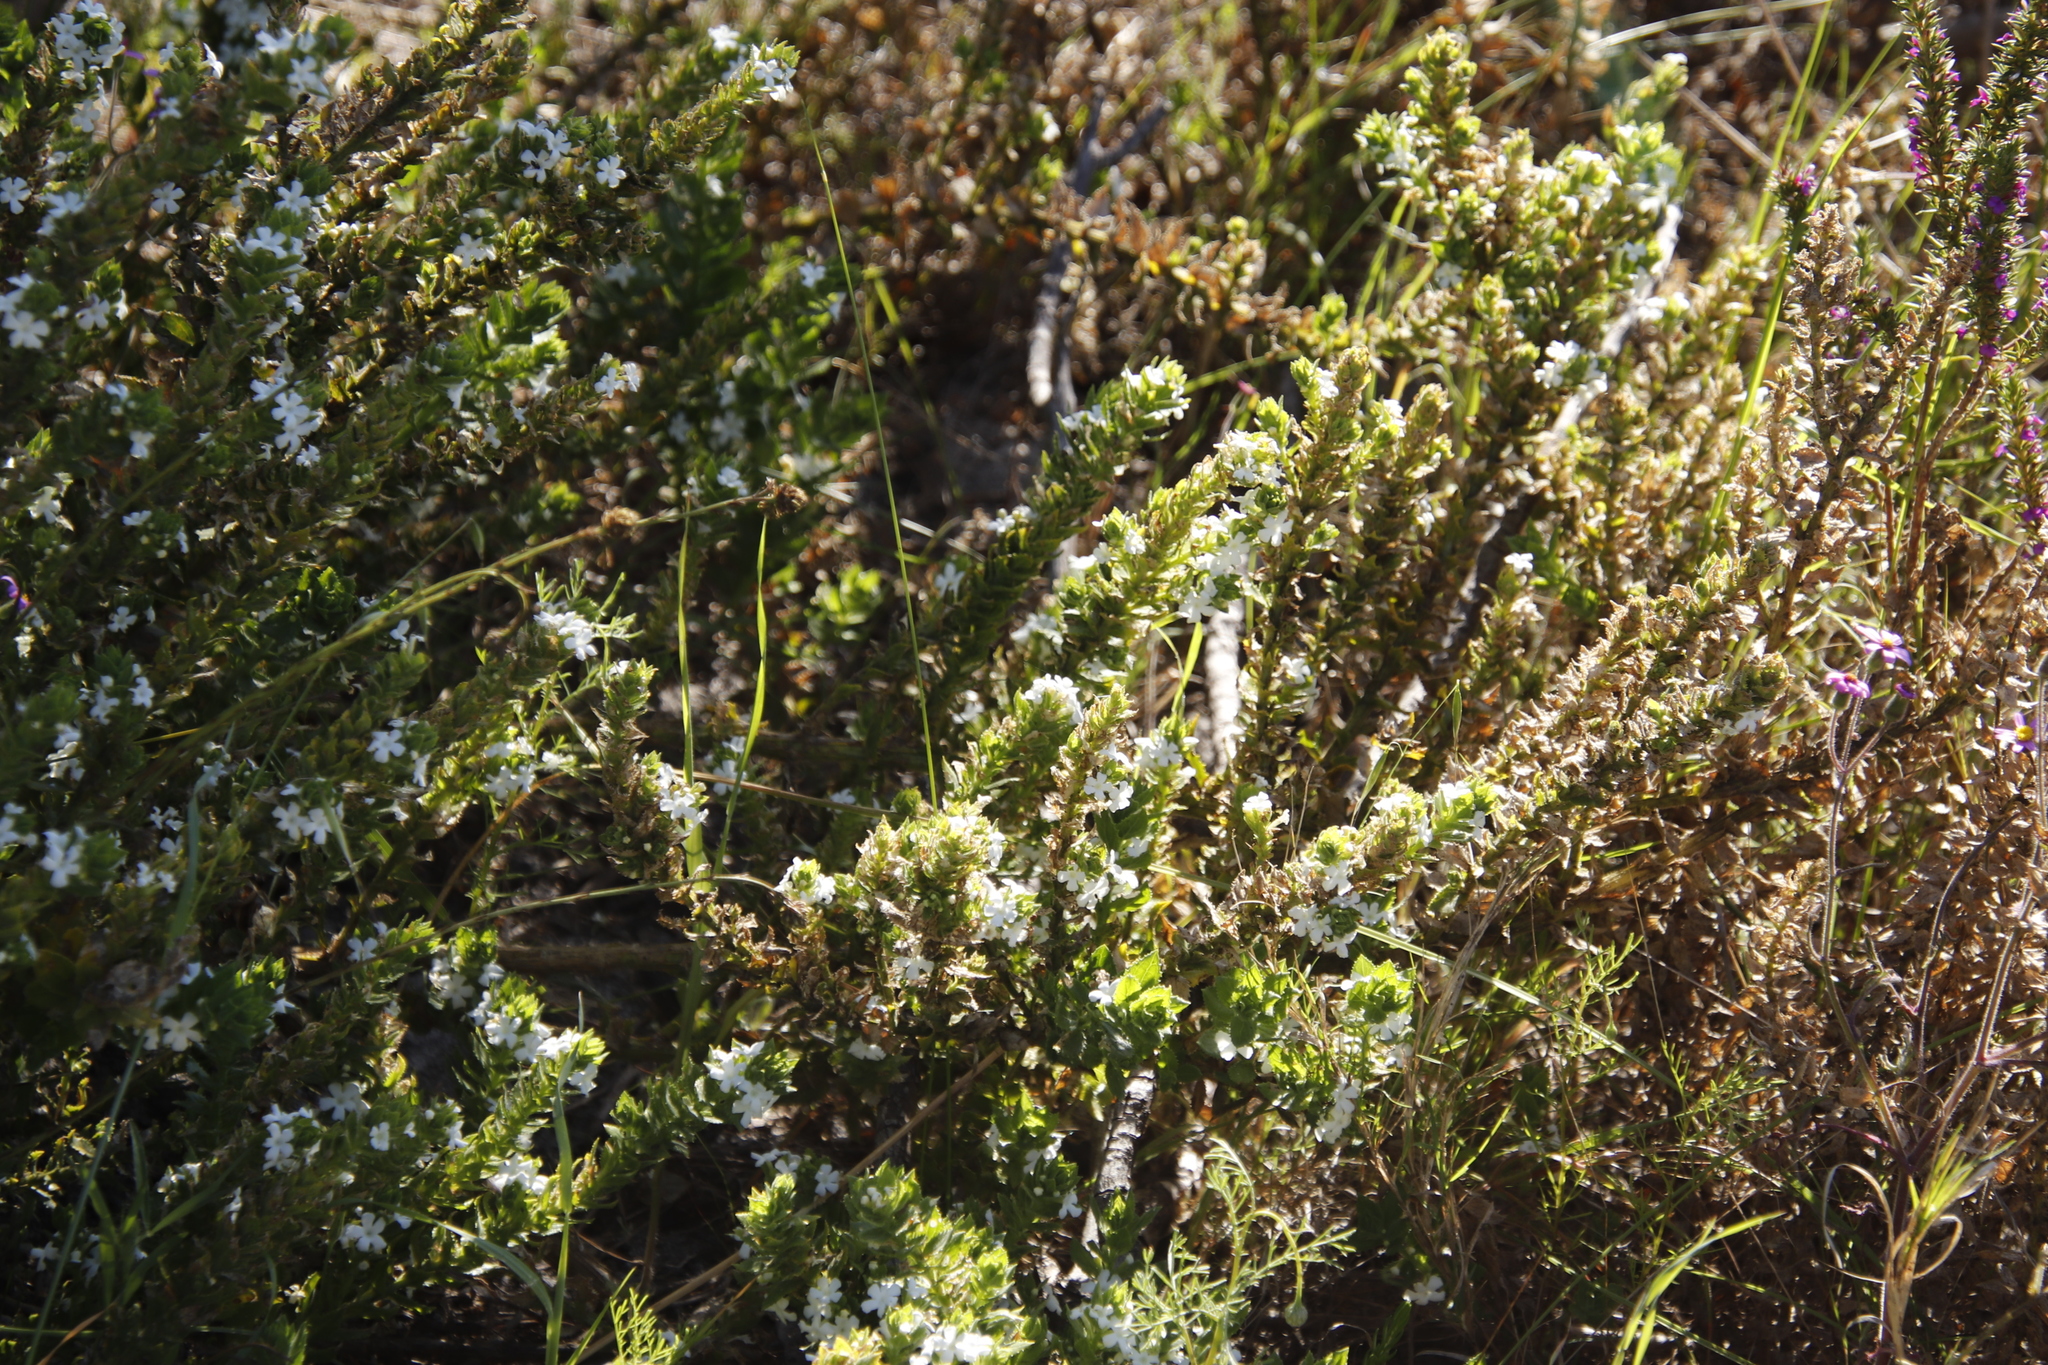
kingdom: Plantae
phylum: Tracheophyta
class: Magnoliopsida
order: Lamiales
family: Scrophulariaceae
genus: Oftia
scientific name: Oftia africana
